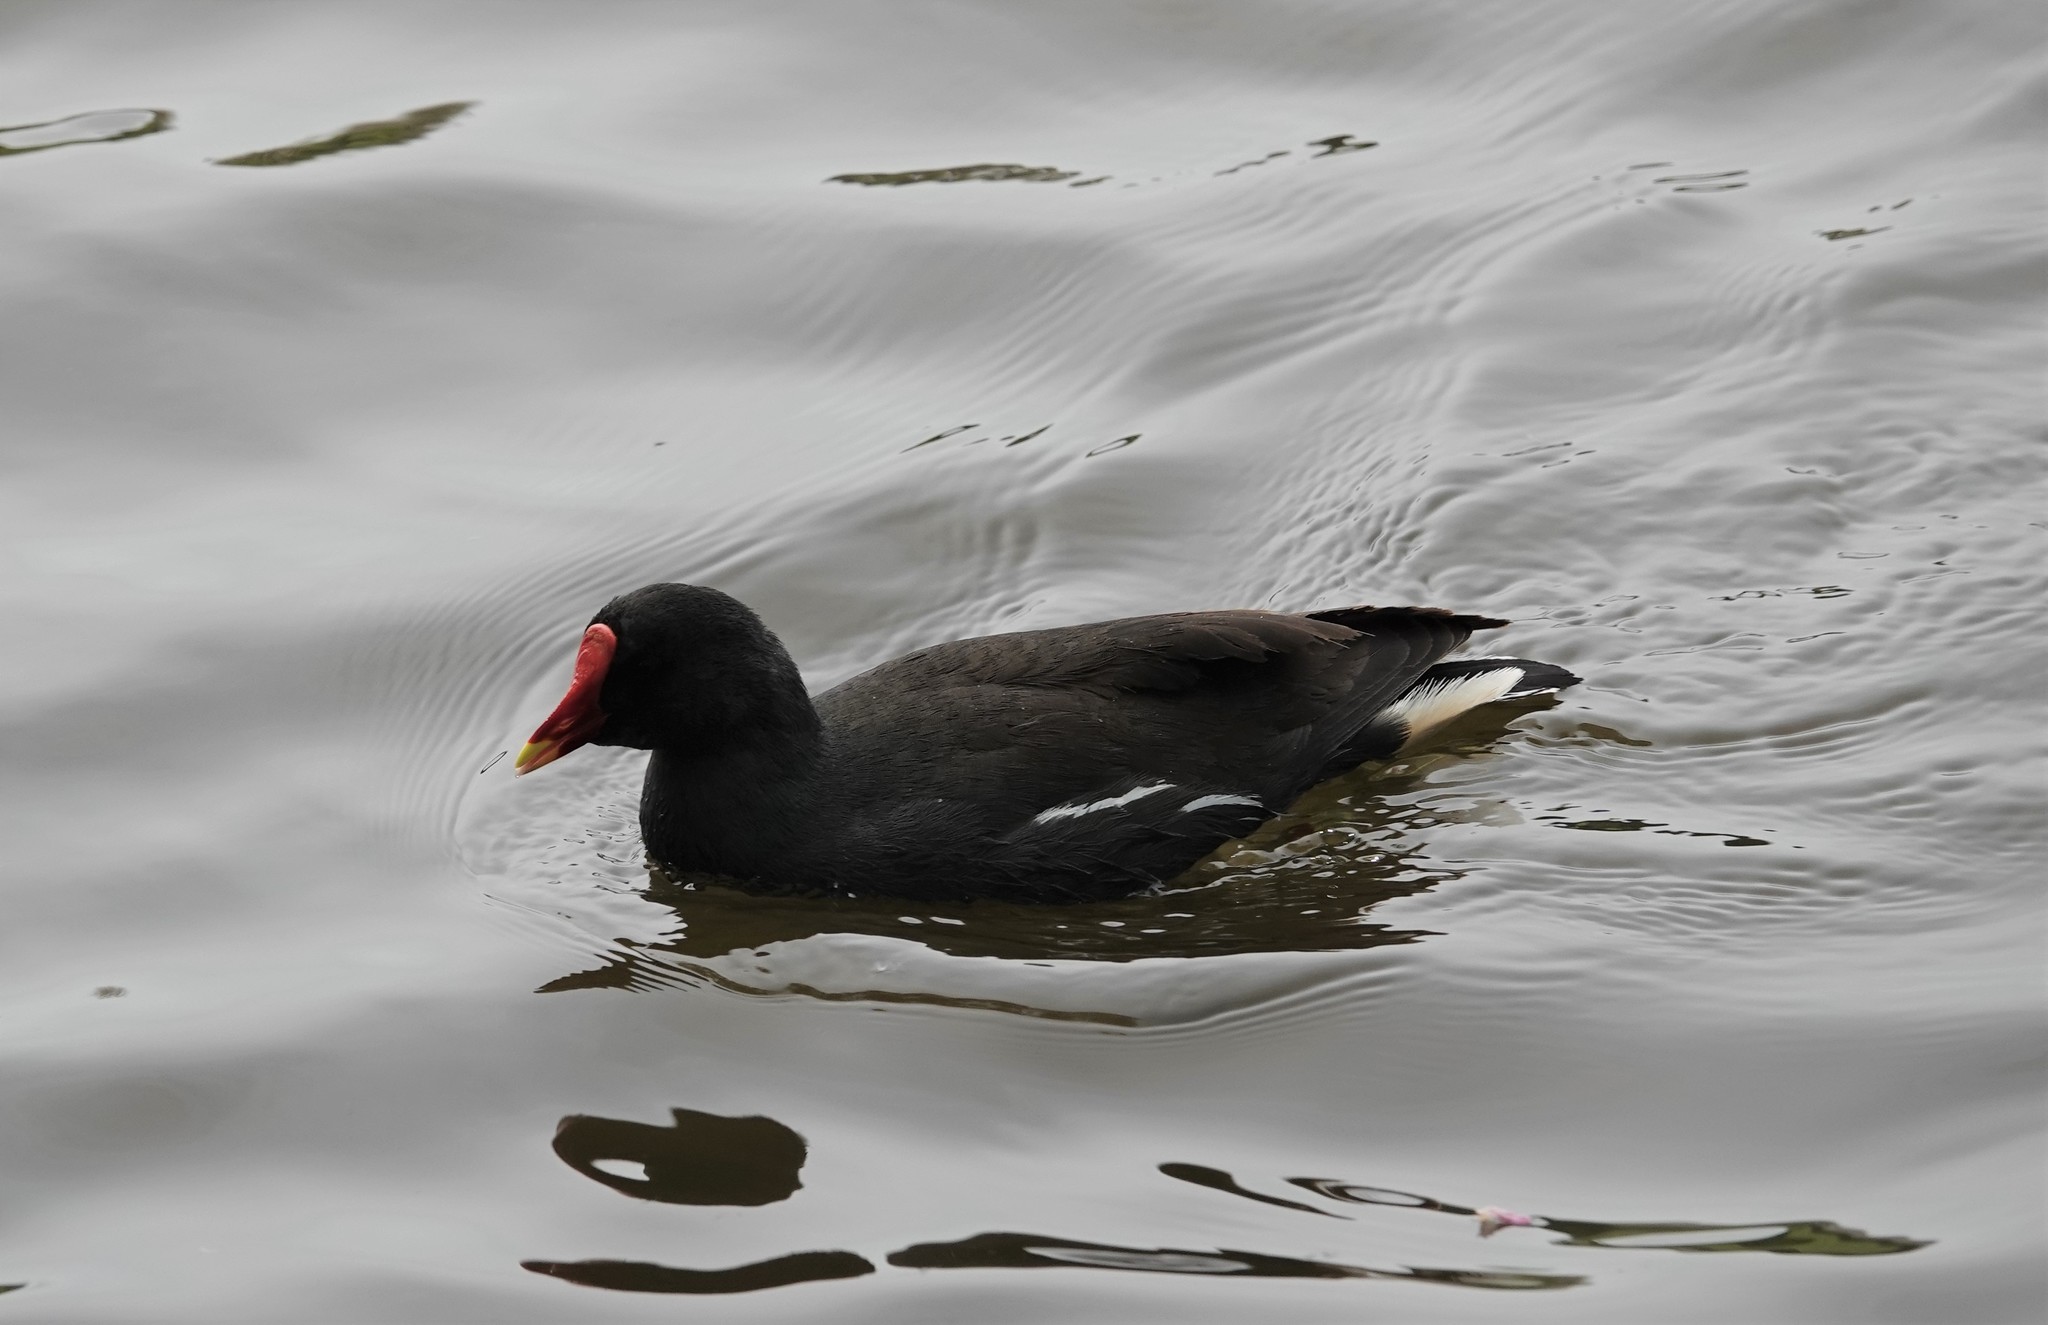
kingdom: Animalia
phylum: Chordata
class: Aves
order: Gruiformes
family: Rallidae
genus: Gallinula
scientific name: Gallinula chloropus
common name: Common moorhen
